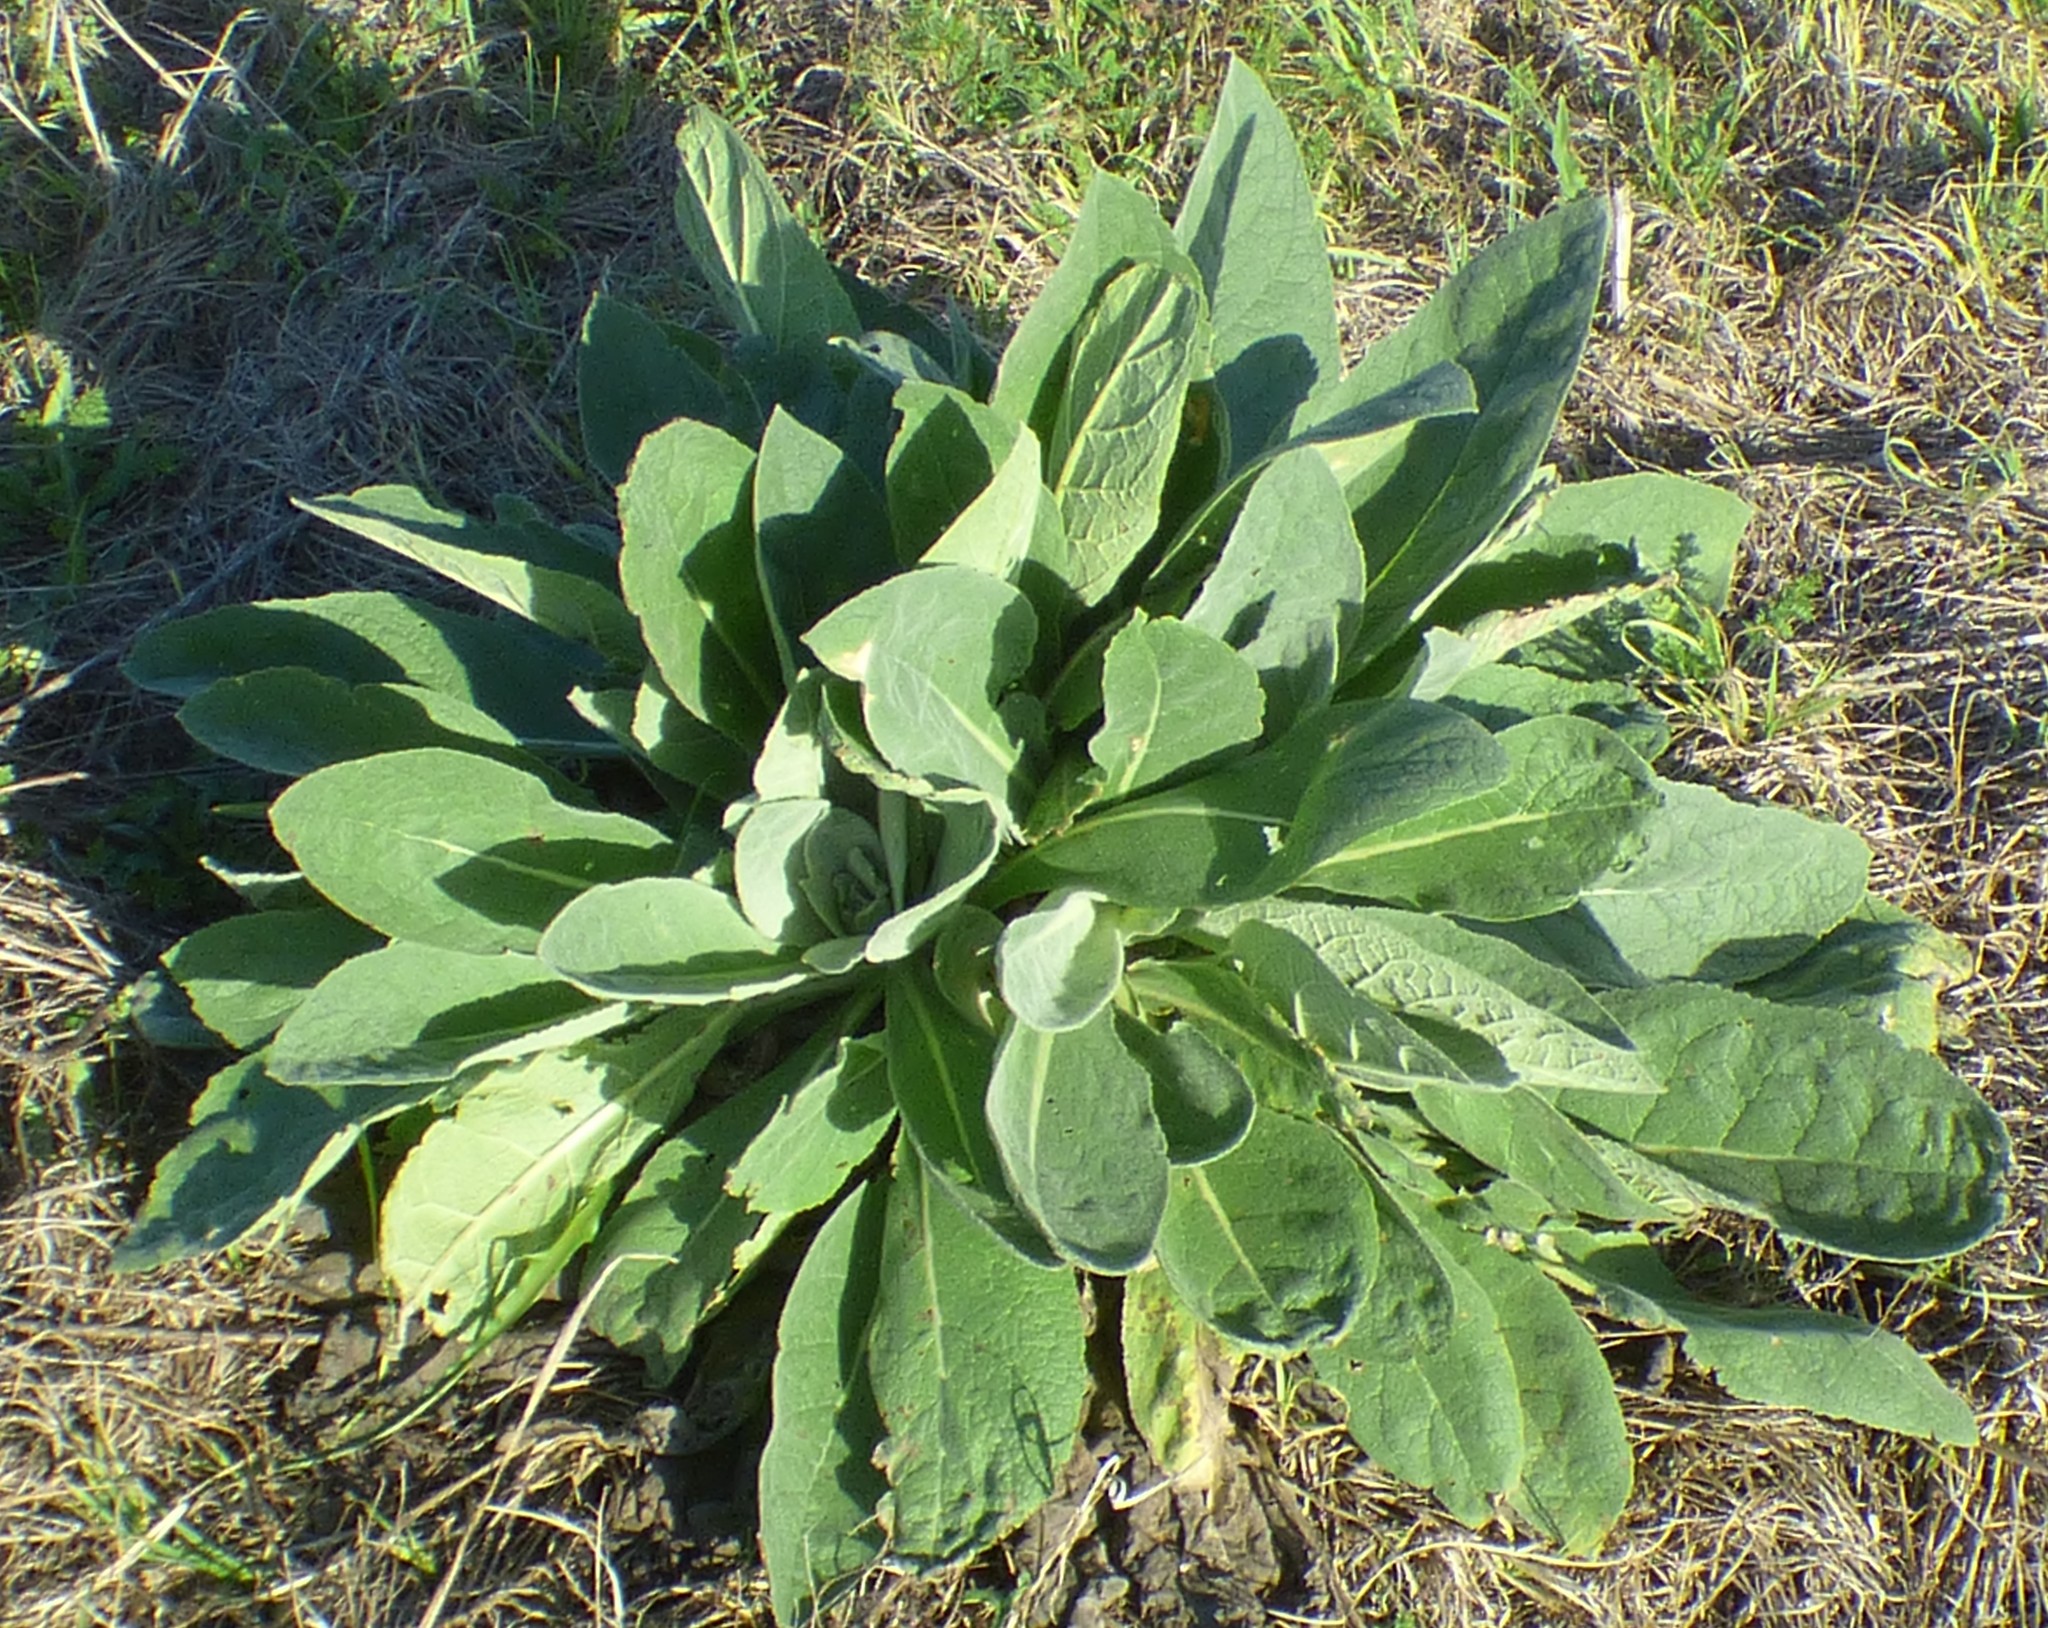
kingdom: Plantae
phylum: Tracheophyta
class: Magnoliopsida
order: Lamiales
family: Scrophulariaceae
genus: Verbascum
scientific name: Verbascum thapsus
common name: Common mullein
